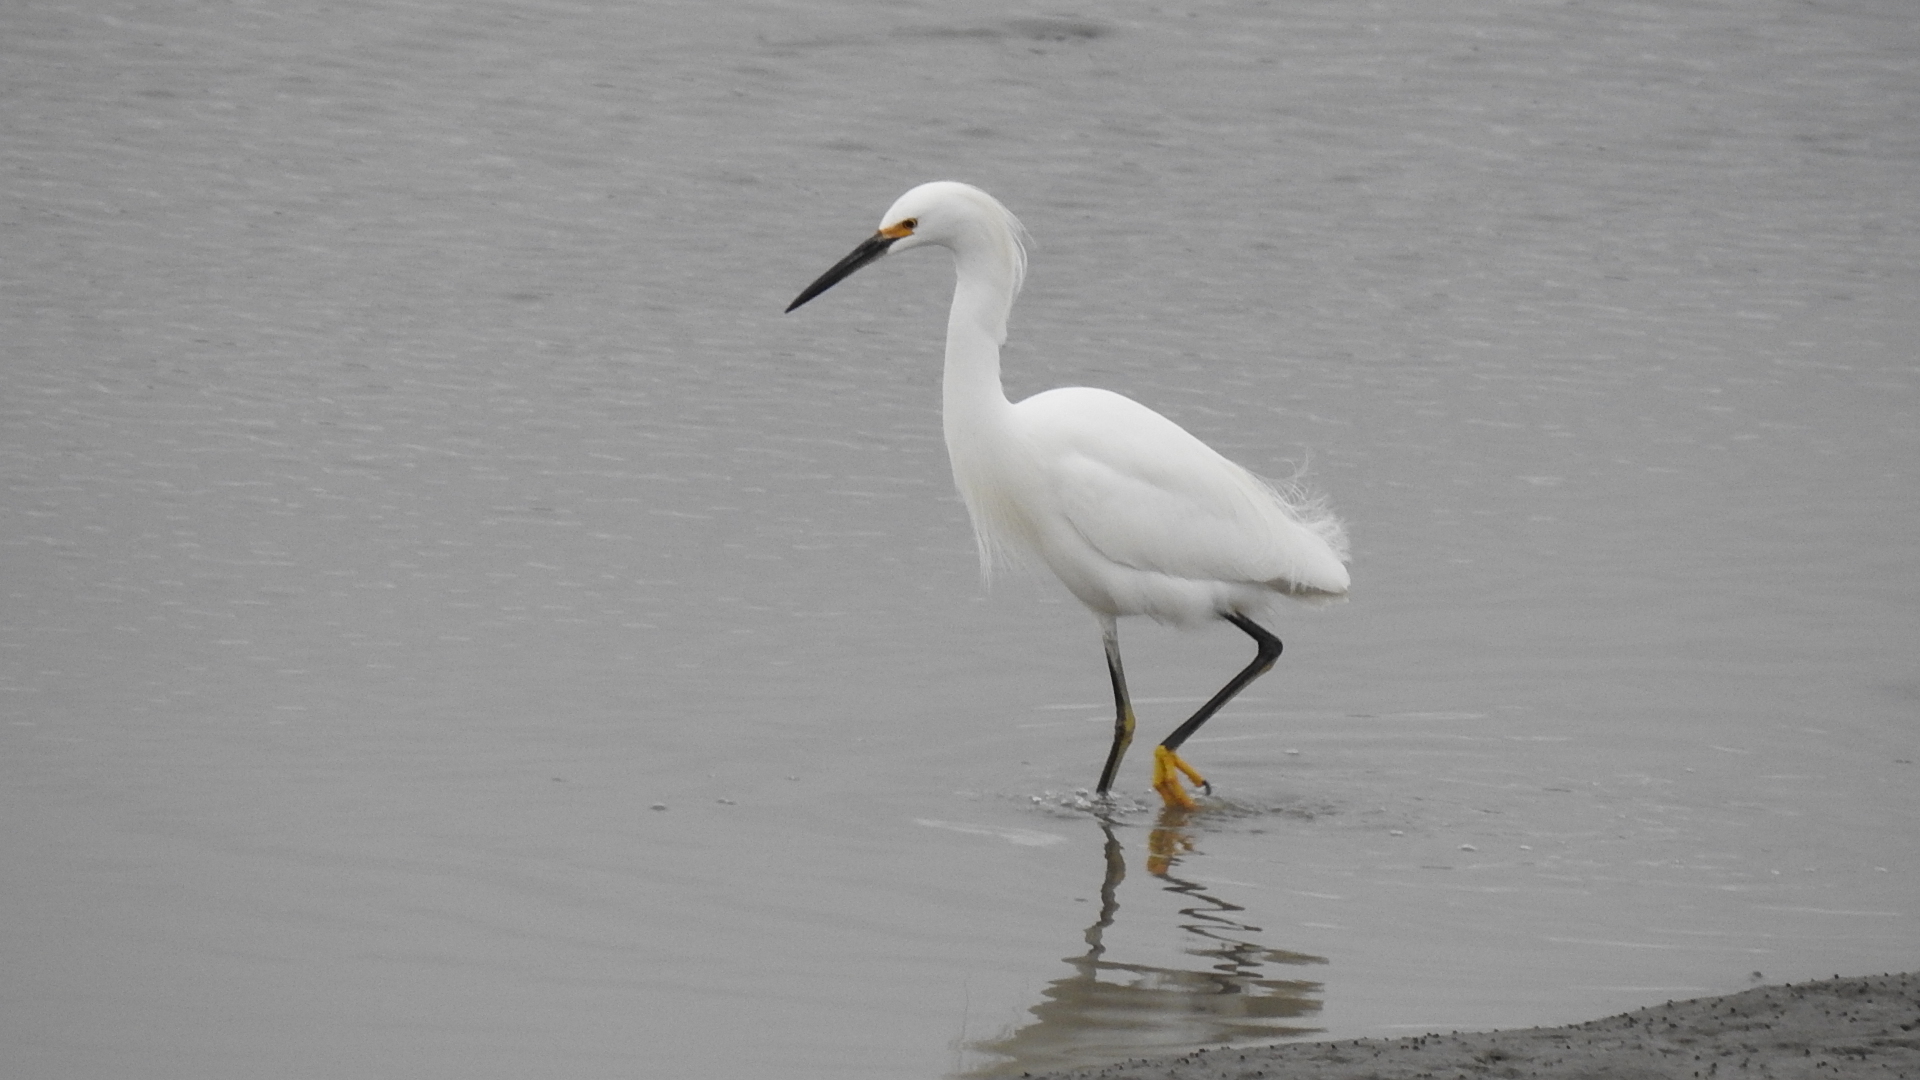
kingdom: Animalia
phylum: Chordata
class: Aves
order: Pelecaniformes
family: Ardeidae
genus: Egretta
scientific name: Egretta thula
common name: Snowy egret
